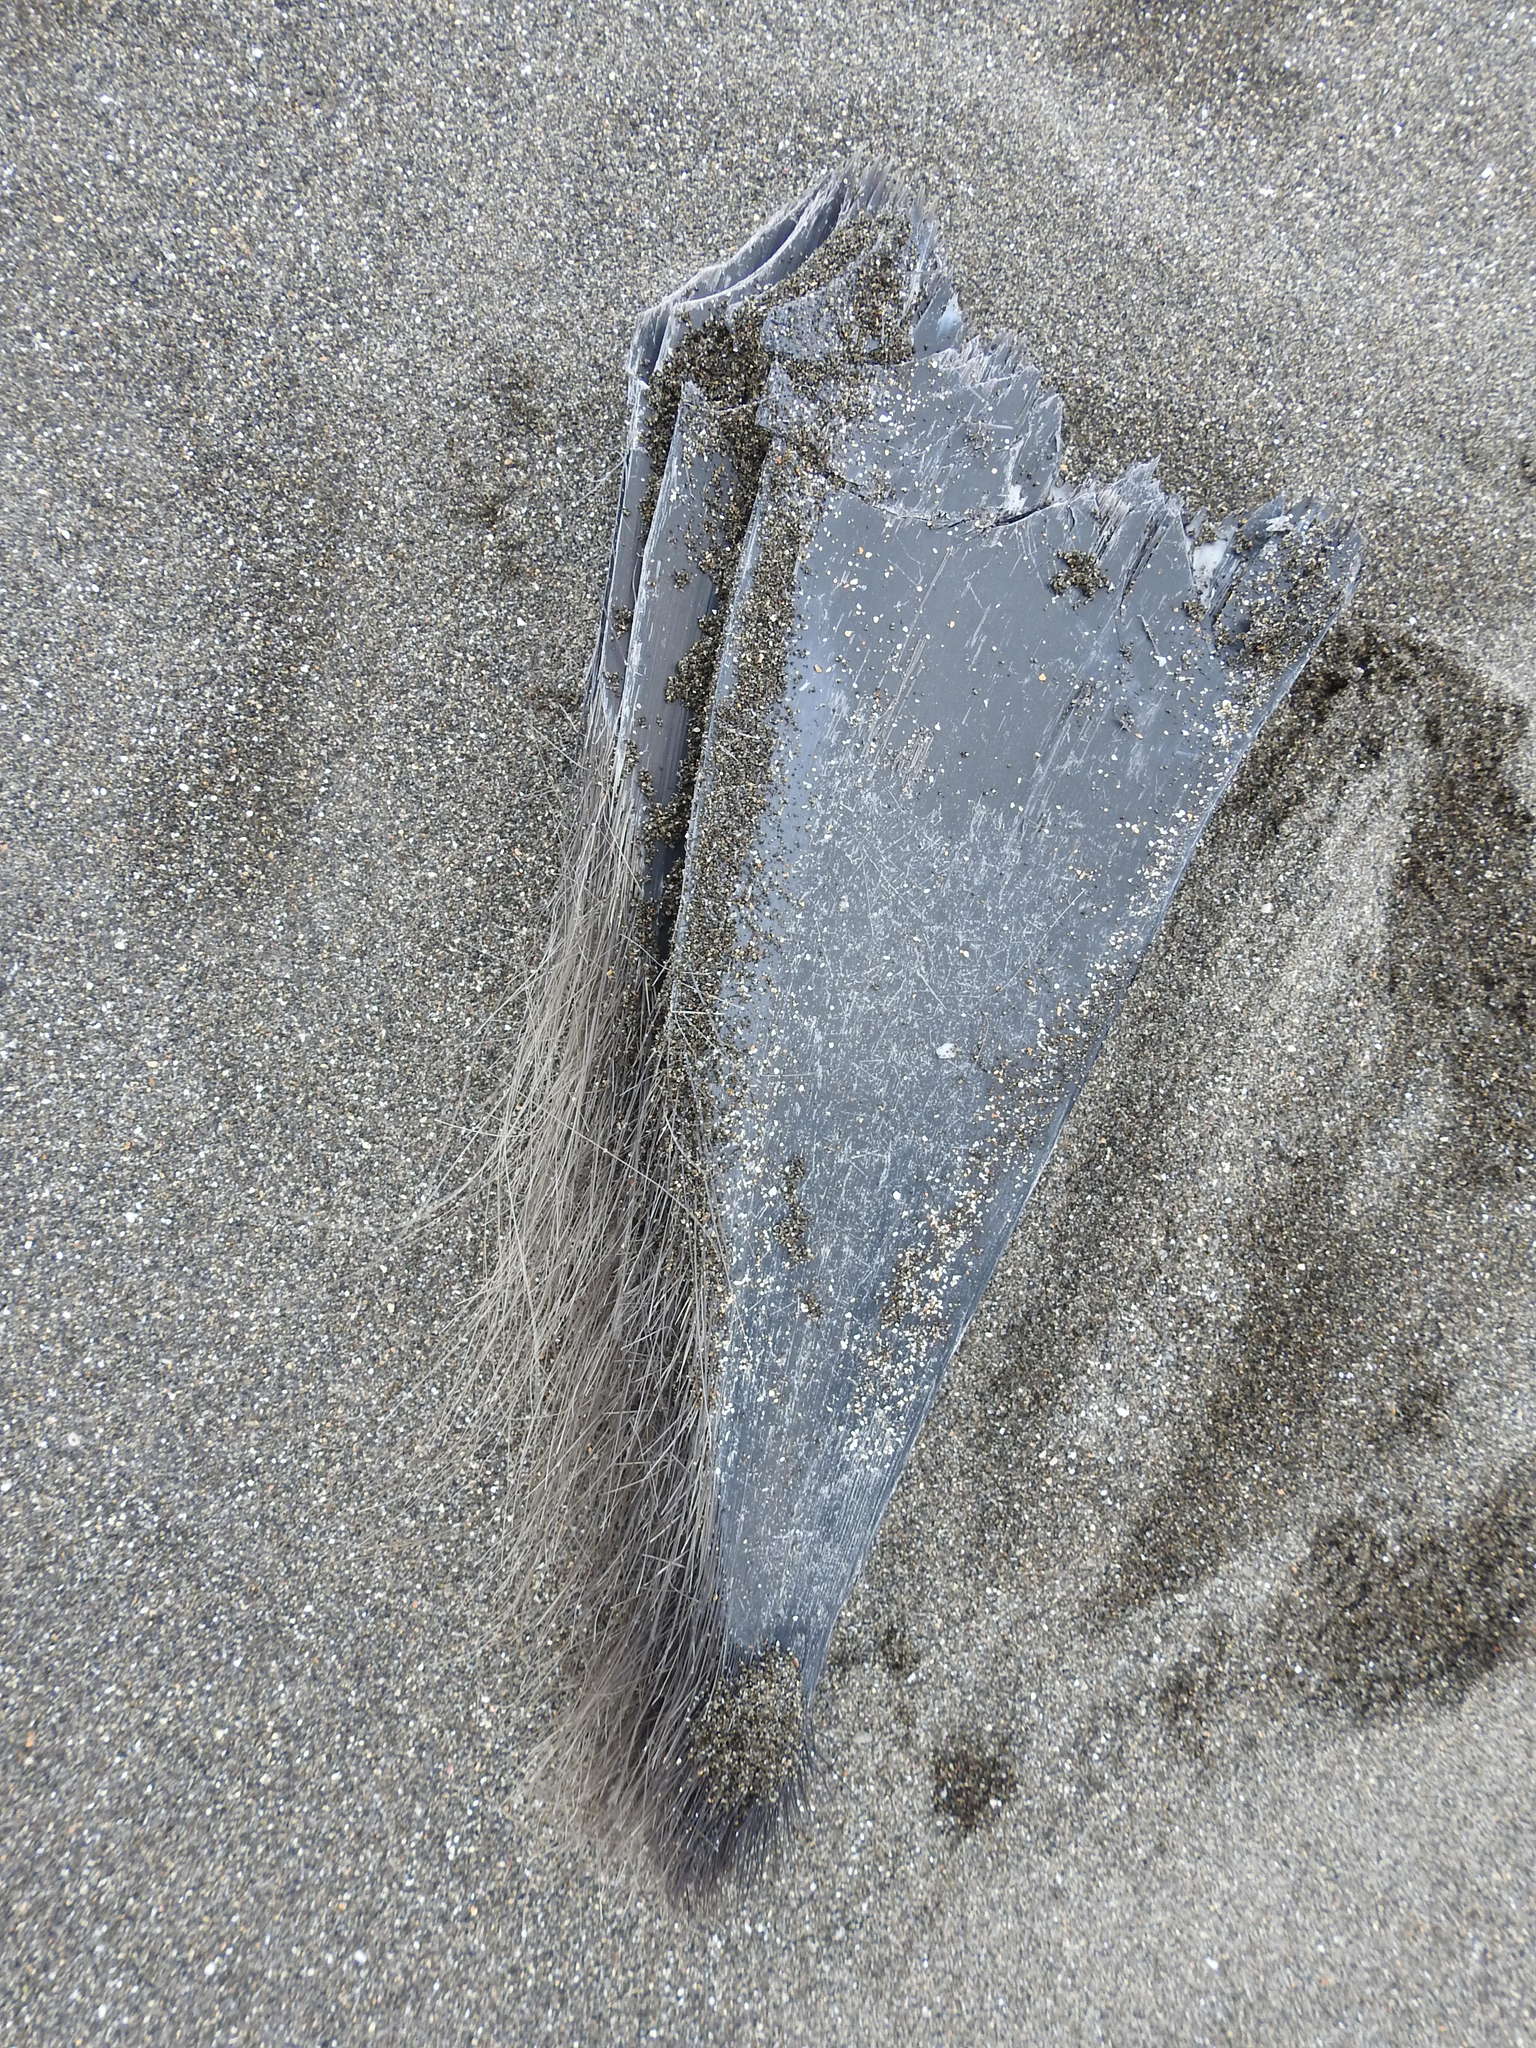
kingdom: Animalia
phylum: Chordata
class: Mammalia
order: Cetacea
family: Balaenopteridae
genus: Balaenoptera
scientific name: Balaenoptera musculus
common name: Blue whale
